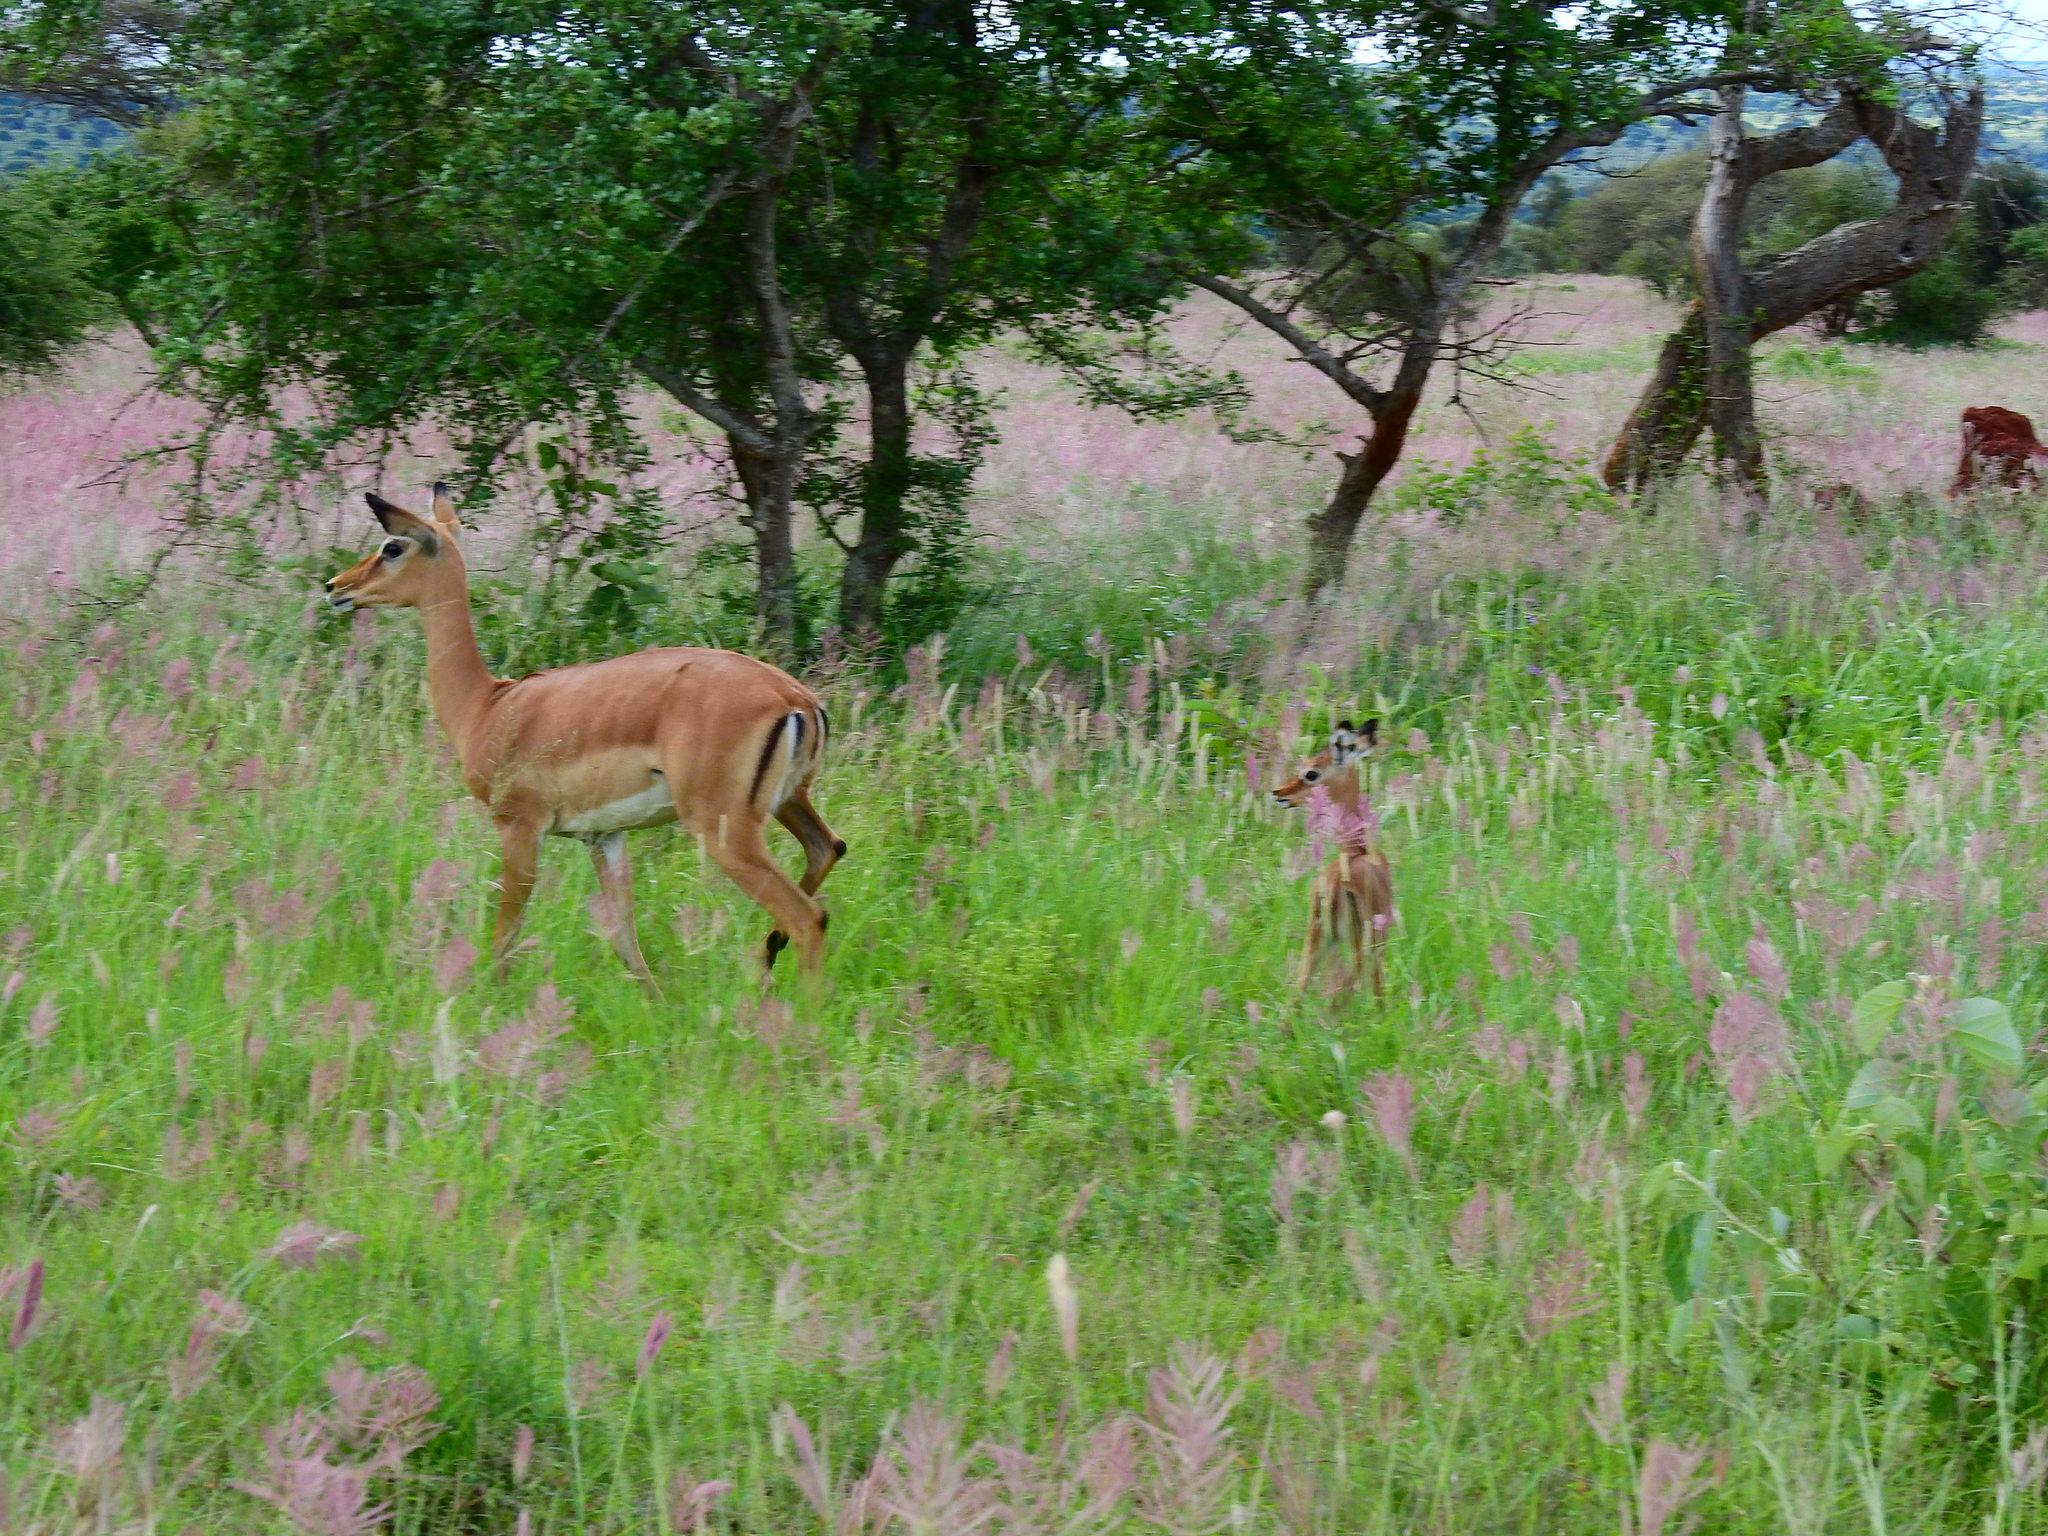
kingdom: Animalia
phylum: Chordata
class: Mammalia
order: Artiodactyla
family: Bovidae
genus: Aepyceros
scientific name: Aepyceros melampus
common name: Impala
